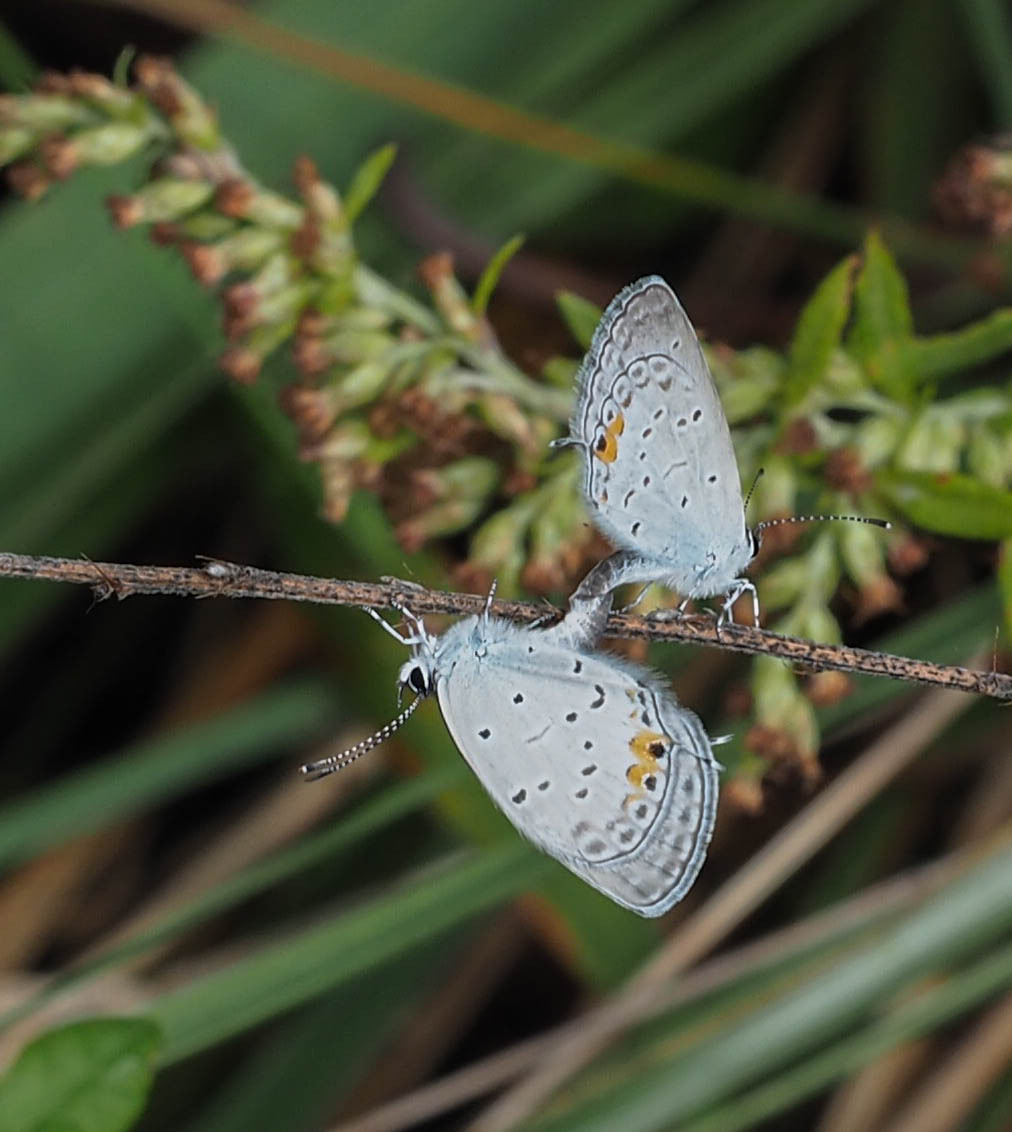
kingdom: Animalia
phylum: Arthropoda
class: Insecta
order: Lepidoptera
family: Lycaenidae
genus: Elkalyce
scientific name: Elkalyce comyntas
